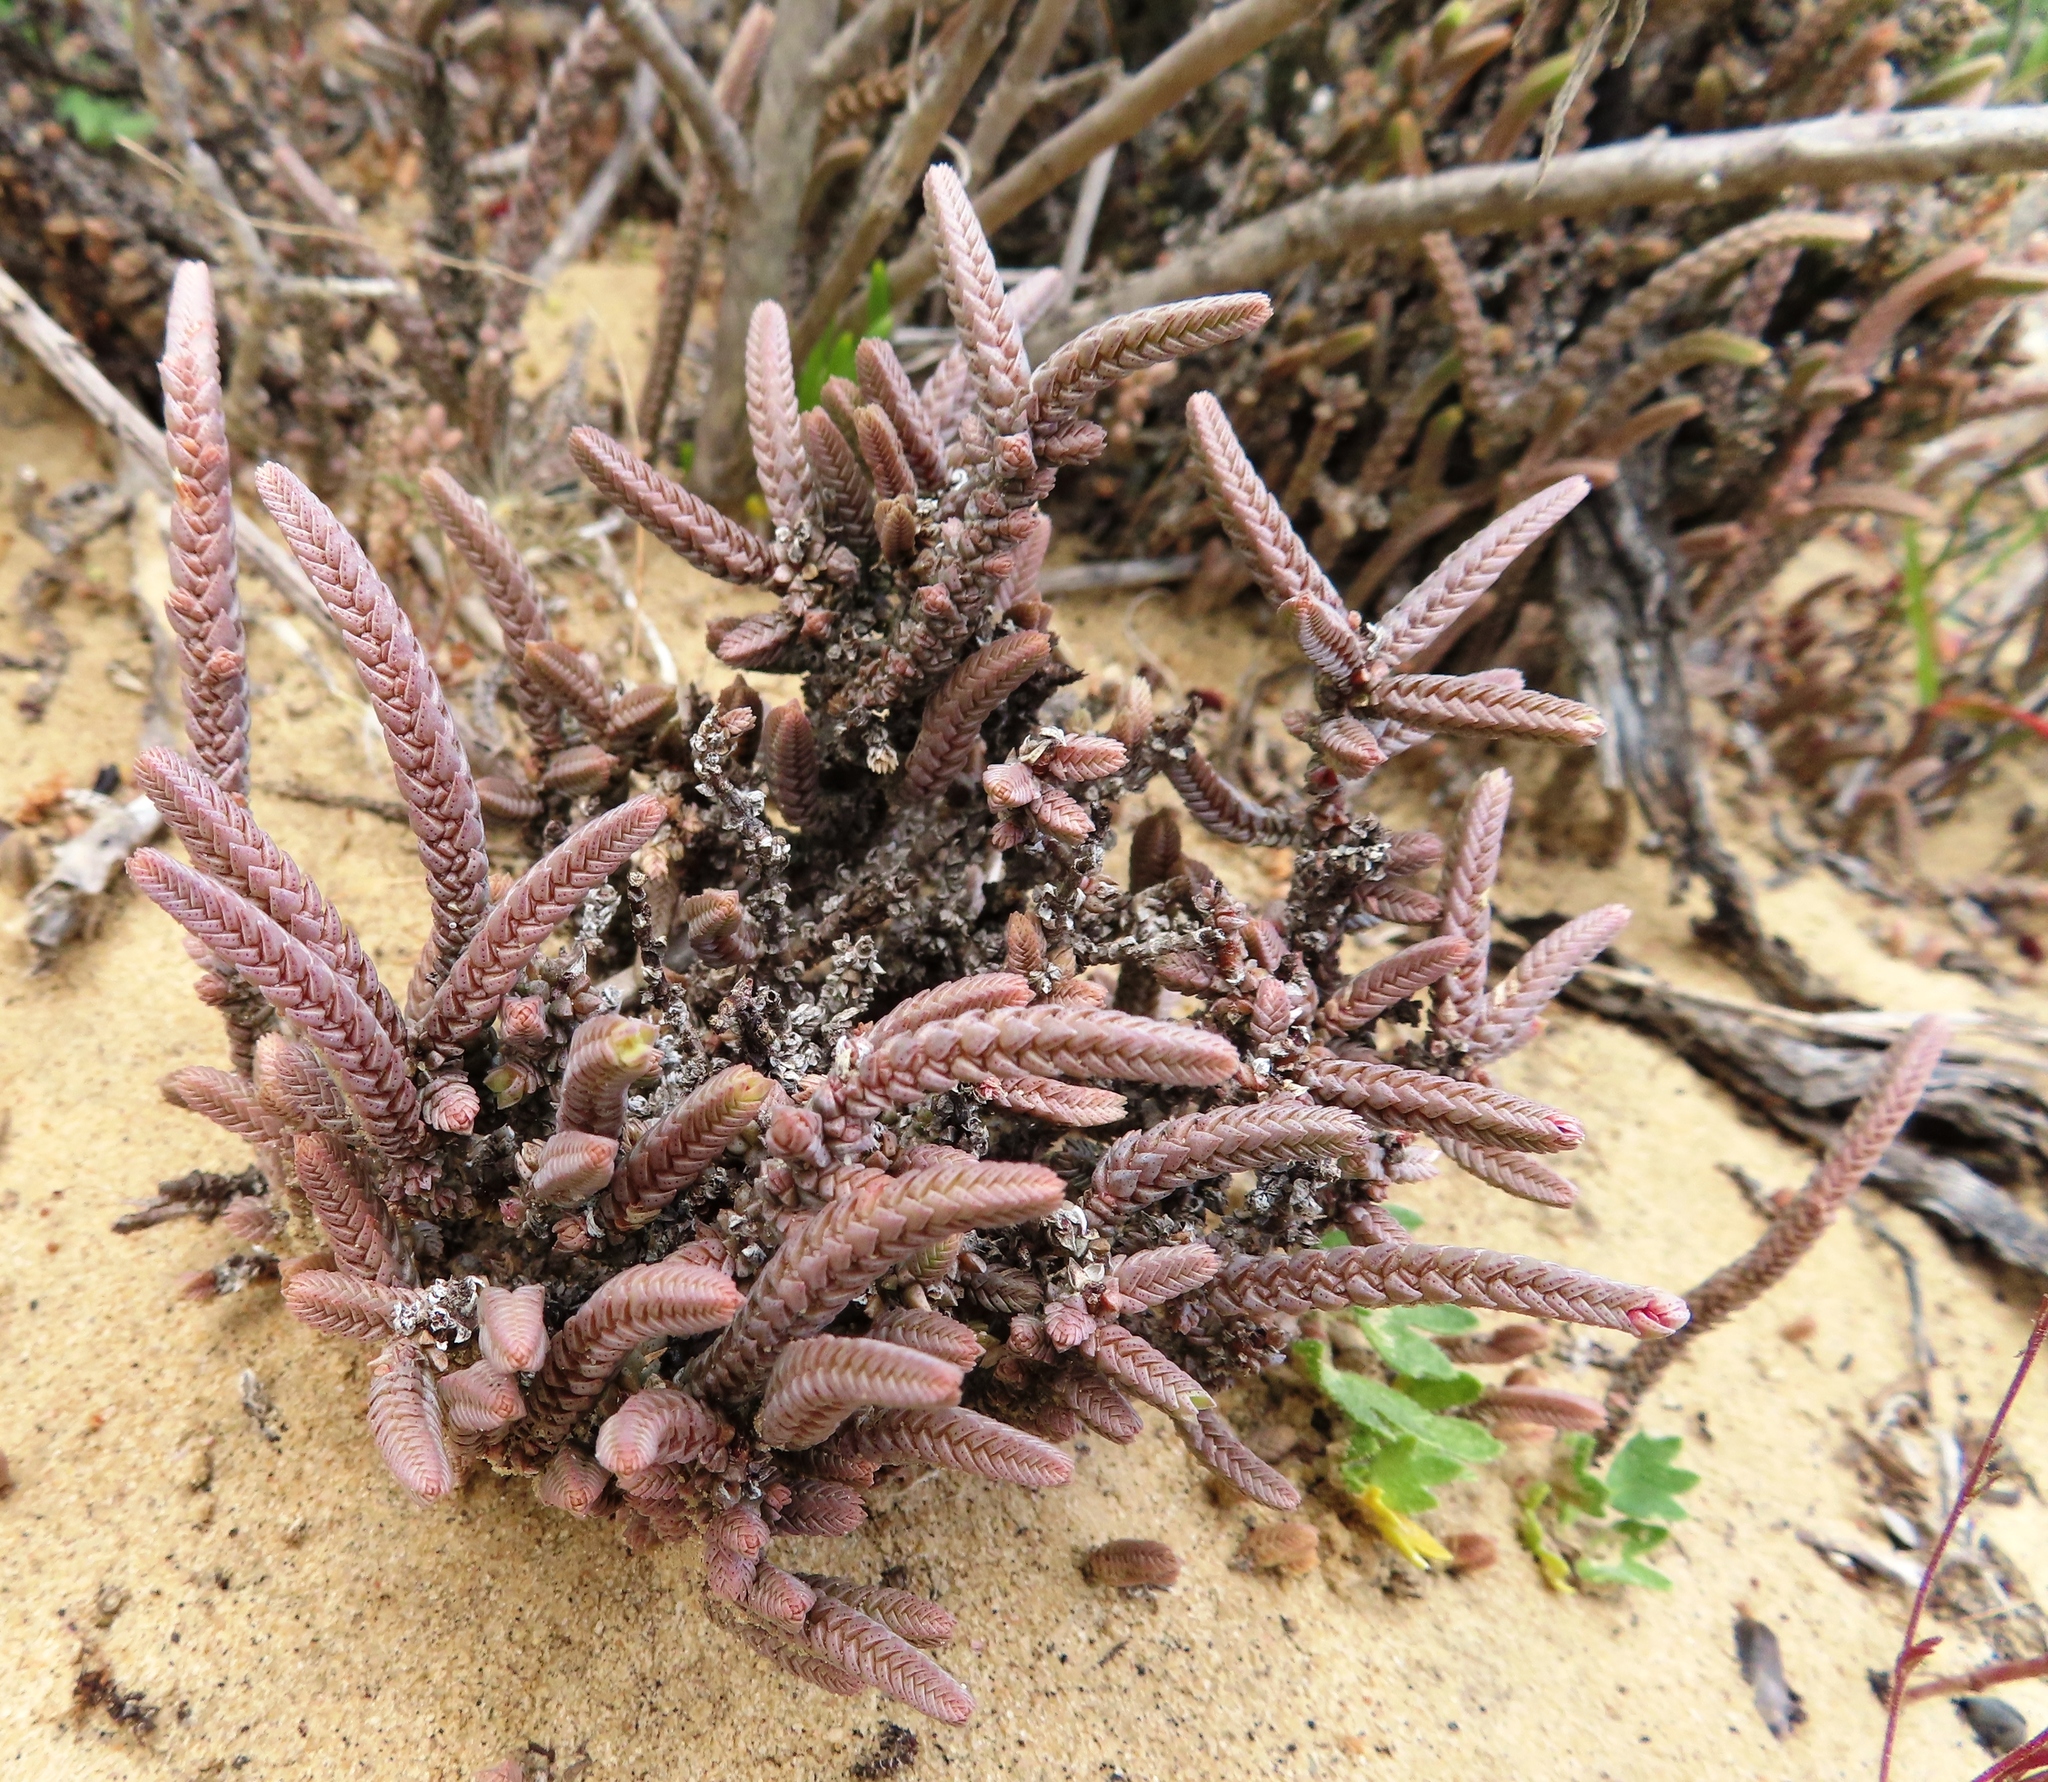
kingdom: Plantae
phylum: Tracheophyta
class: Magnoliopsida
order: Saxifragales
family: Crassulaceae
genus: Crassula
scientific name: Crassula muscosa
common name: Toy-cypress
